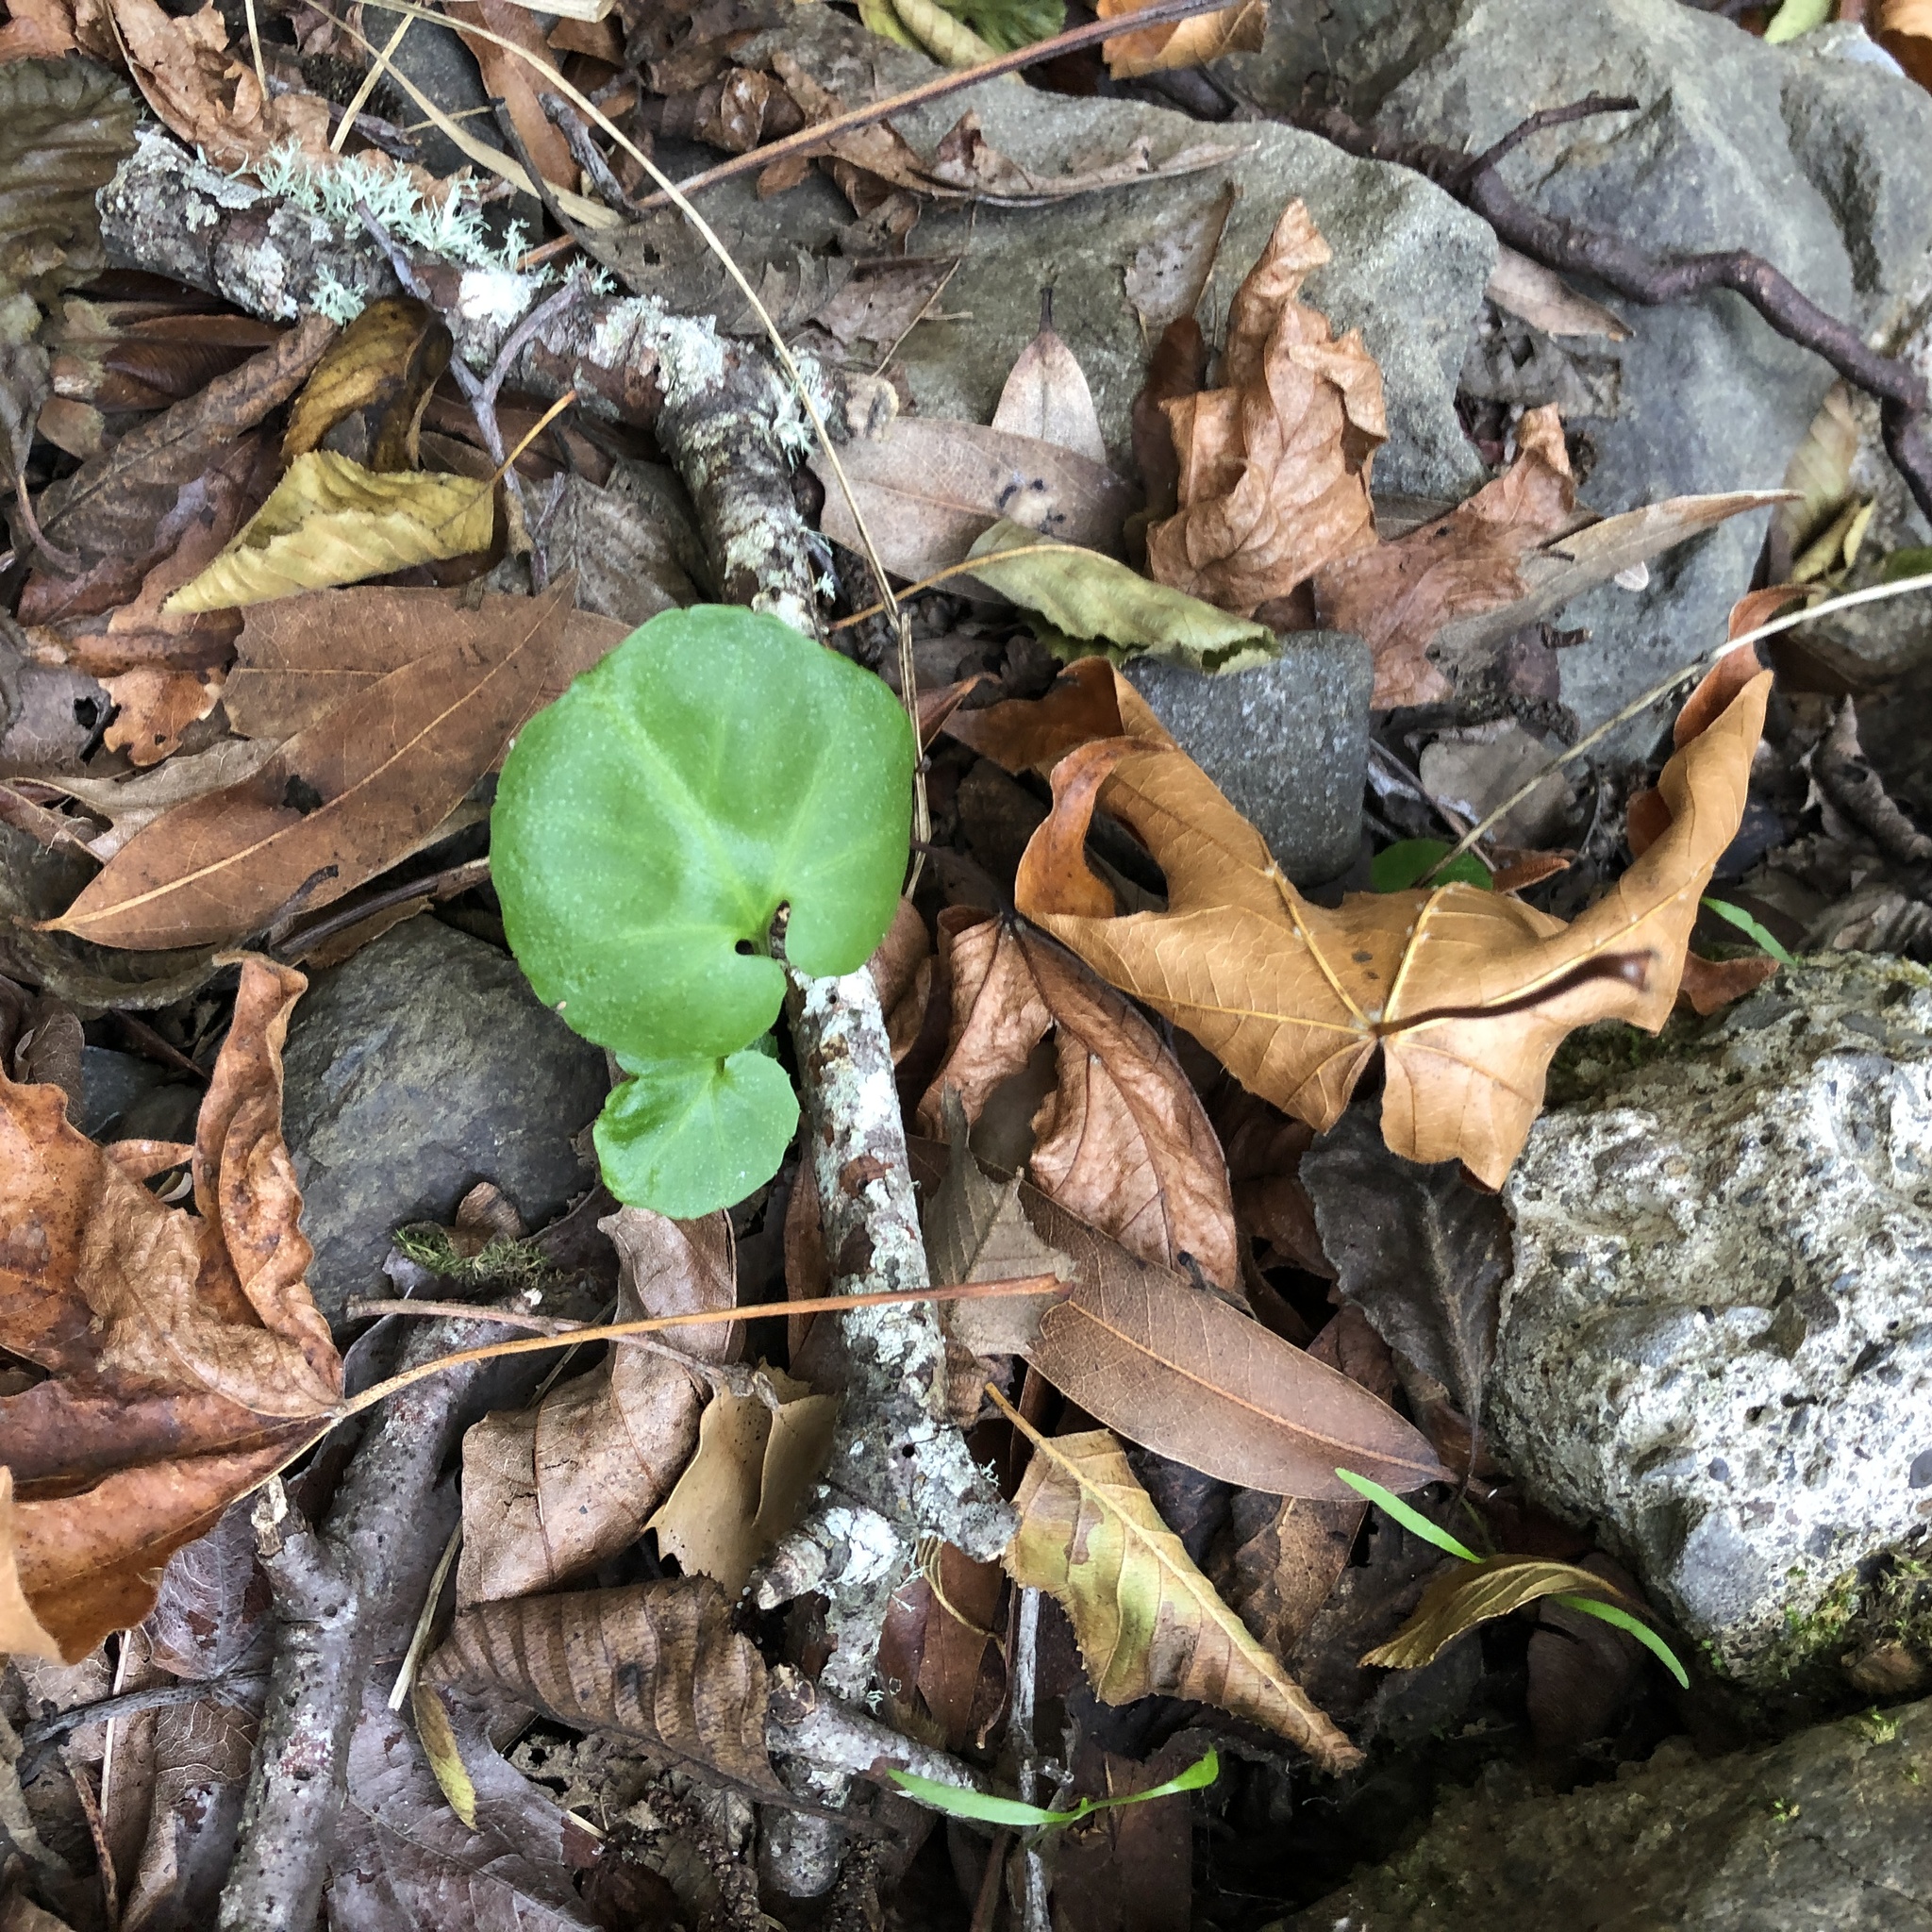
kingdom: Plantae
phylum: Tracheophyta
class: Magnoliopsida
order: Brassicales
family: Brassicaceae
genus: Cardamine
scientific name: Cardamine californica
